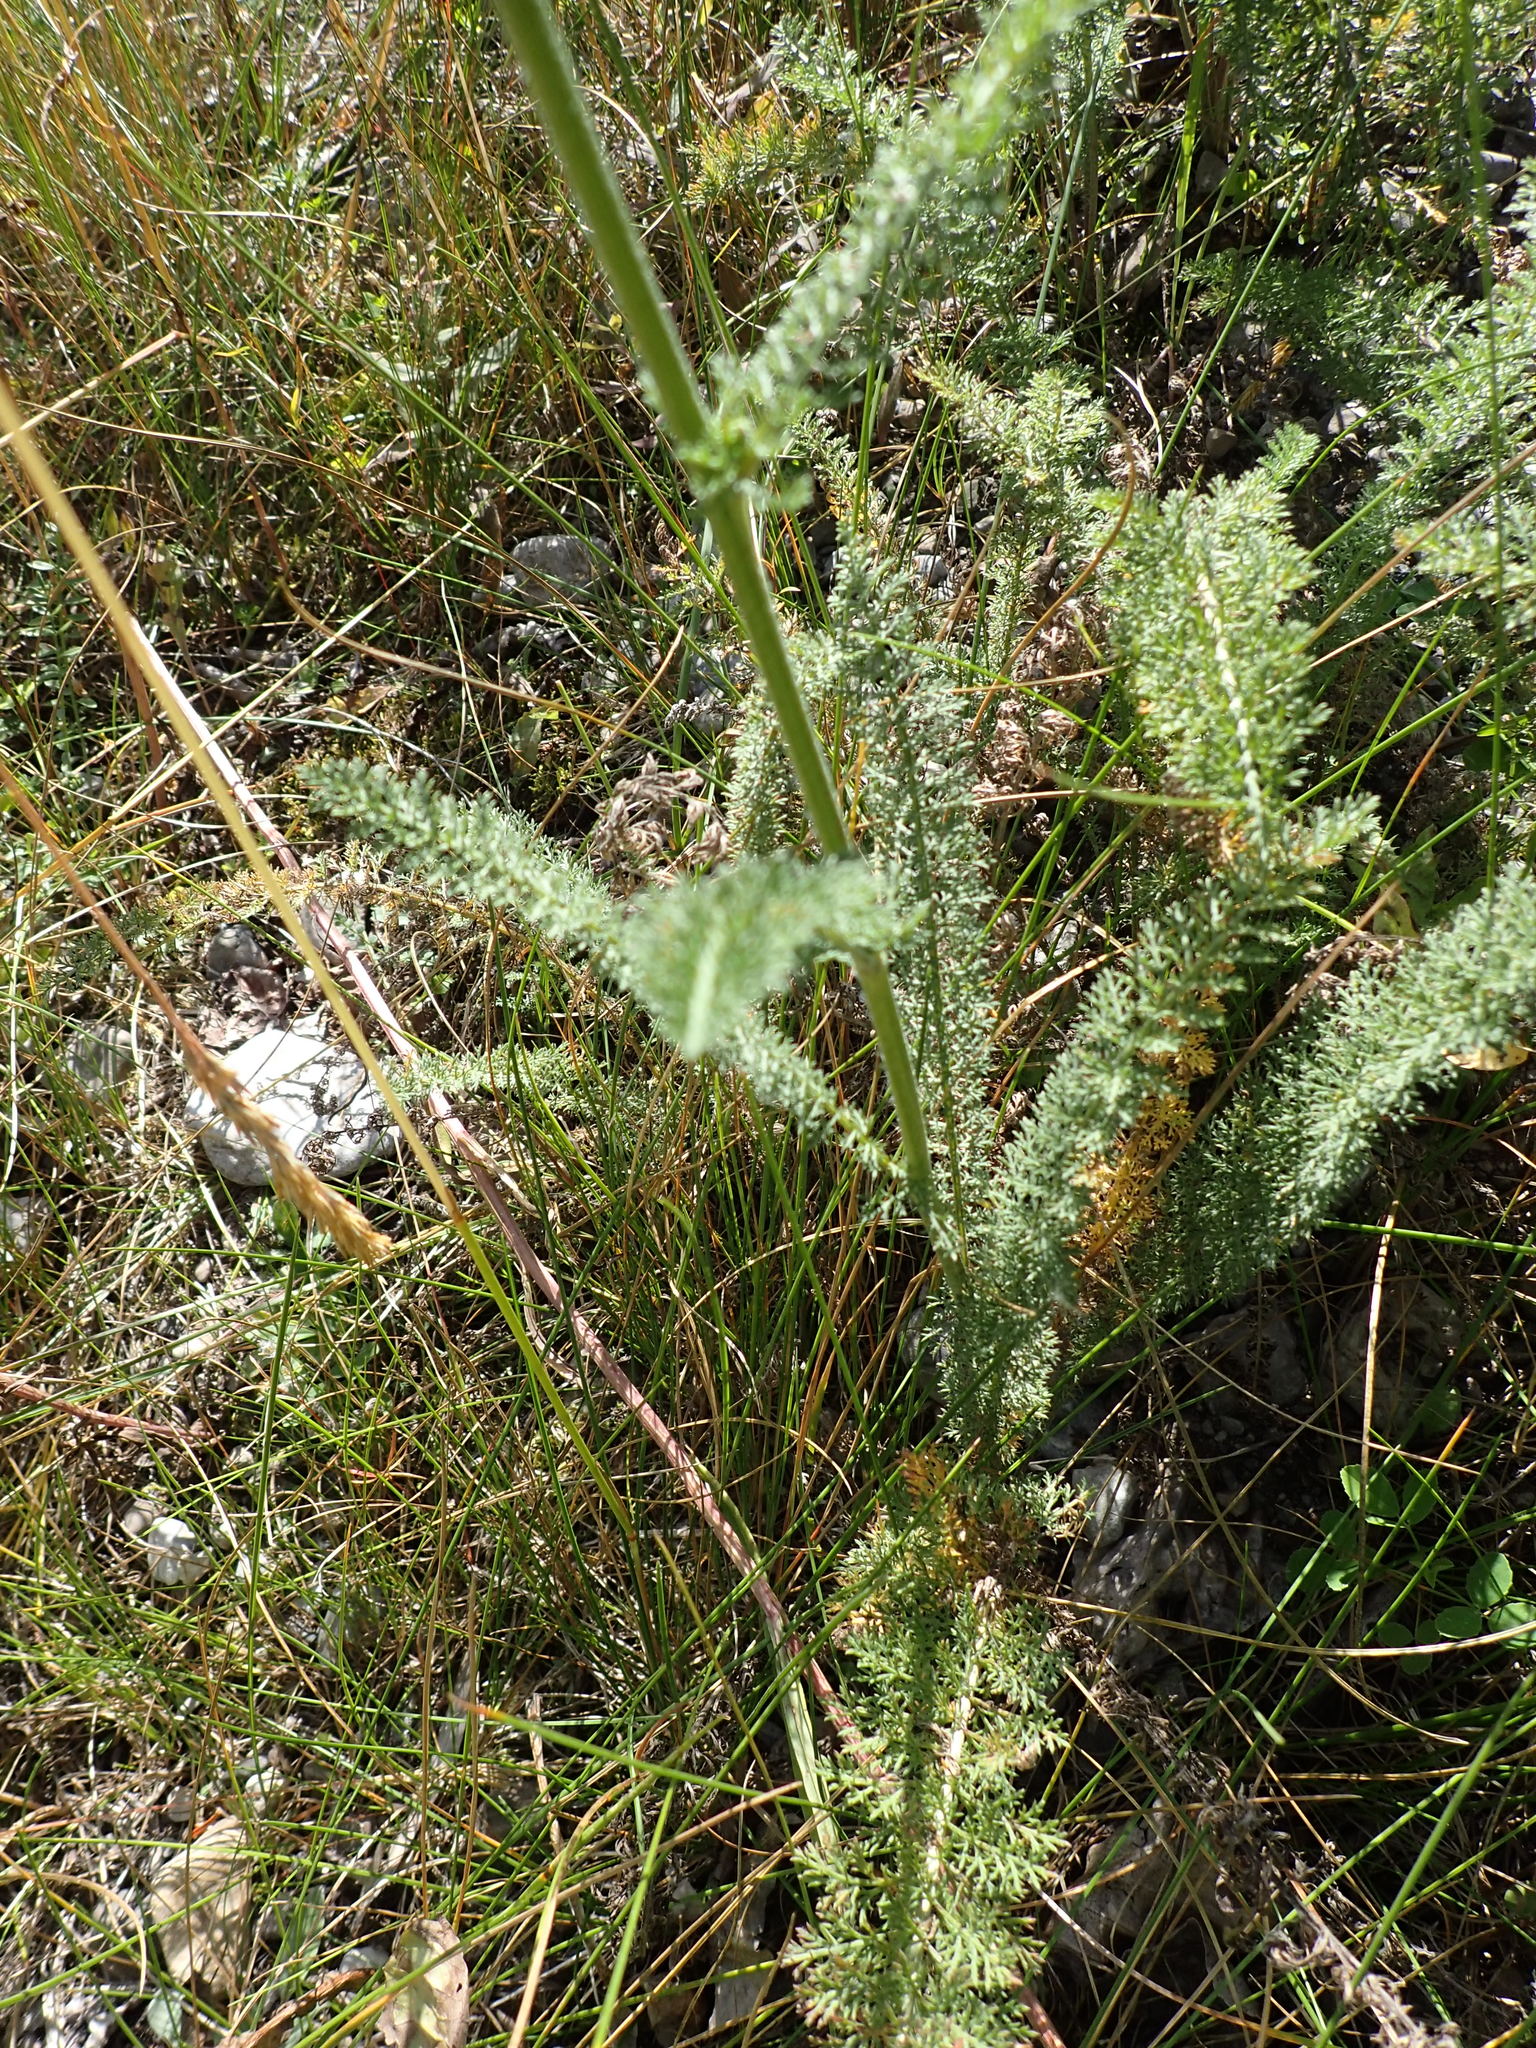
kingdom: Plantae
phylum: Tracheophyta
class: Magnoliopsida
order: Asterales
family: Asteraceae
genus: Achillea
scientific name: Achillea millefolium
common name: Yarrow
